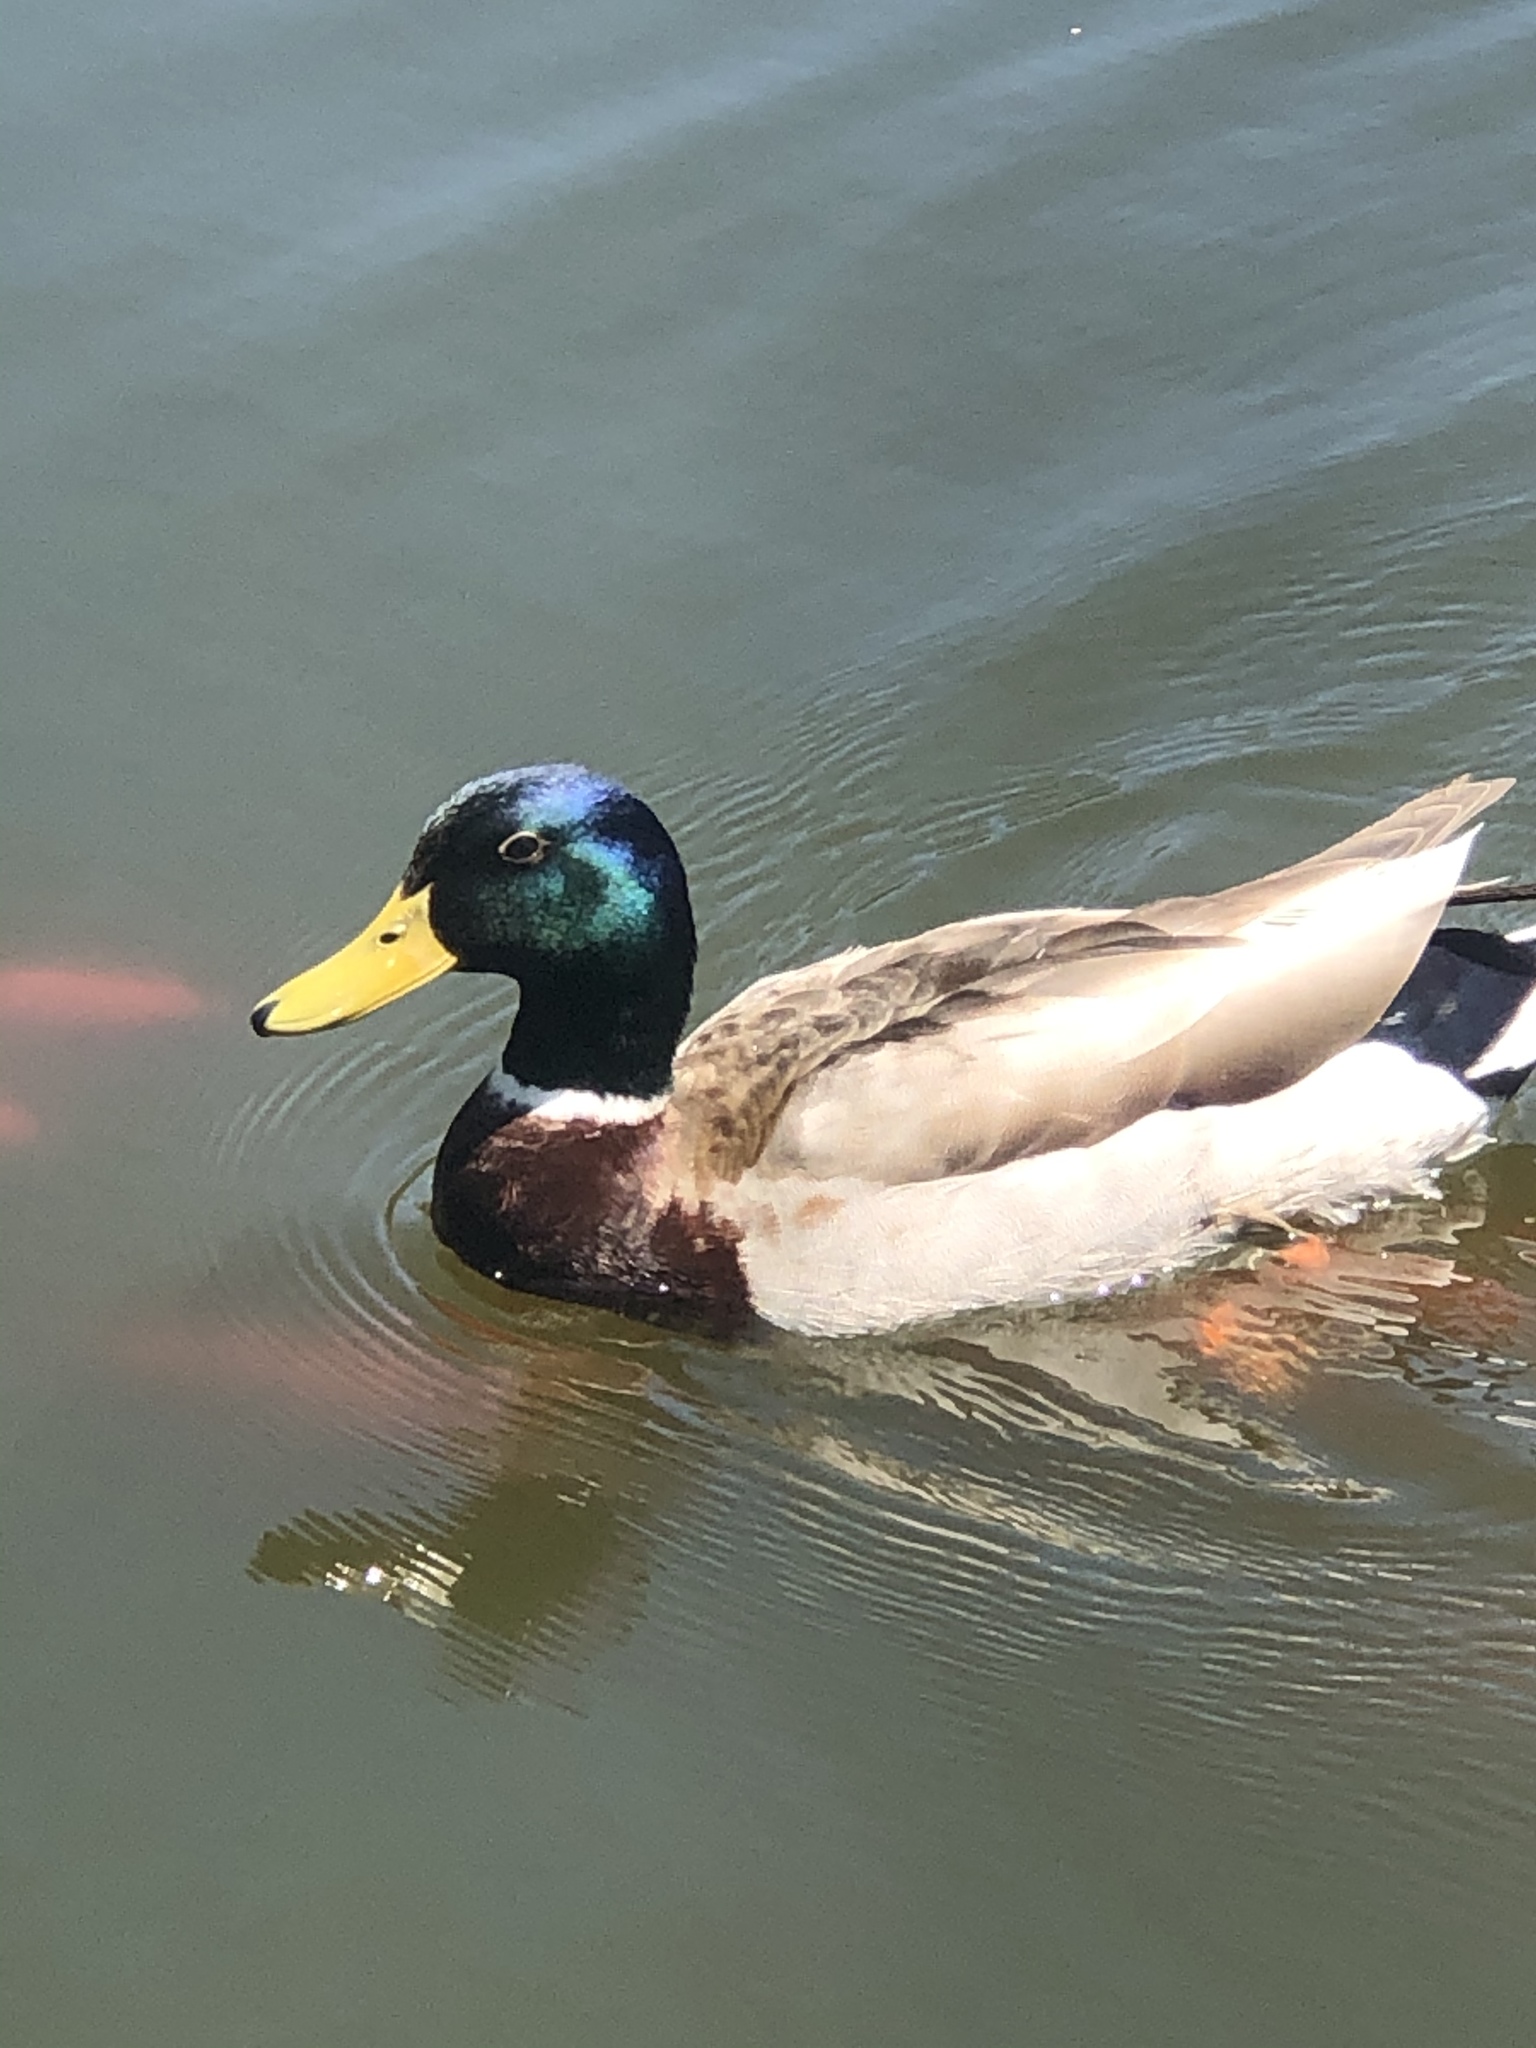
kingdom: Animalia
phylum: Chordata
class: Aves
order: Anseriformes
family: Anatidae
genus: Anas
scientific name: Anas platyrhynchos
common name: Mallard
